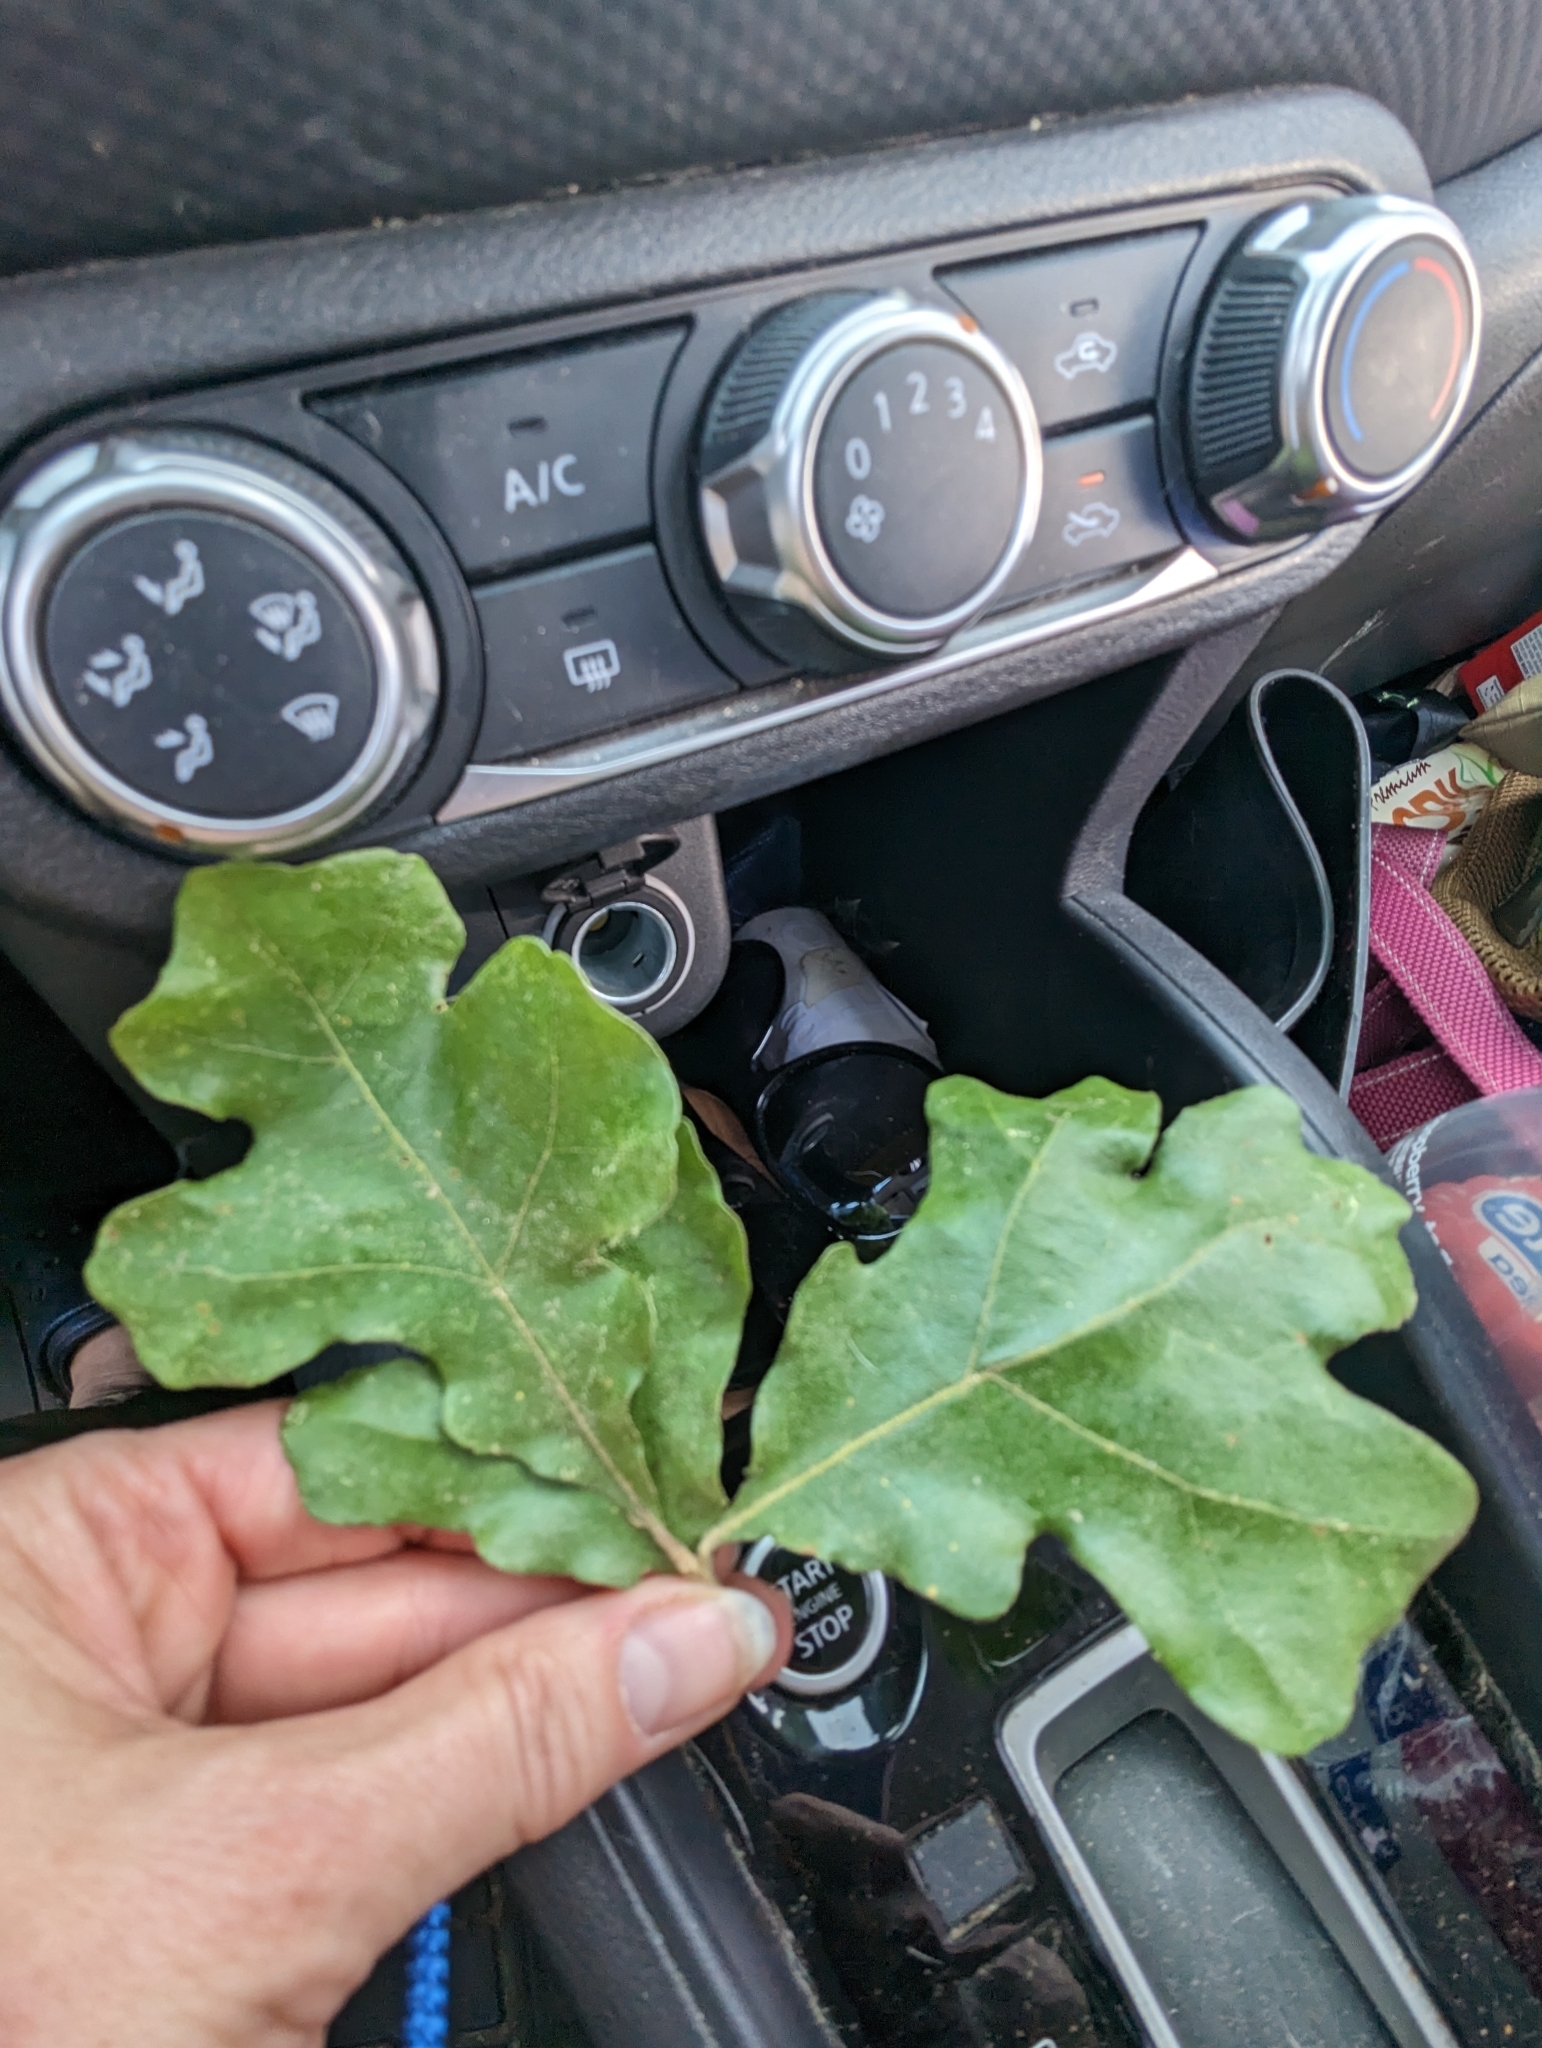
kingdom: Plantae
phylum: Tracheophyta
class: Magnoliopsida
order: Fagales
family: Fagaceae
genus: Quercus
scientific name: Quercus stellata
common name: Post oak
